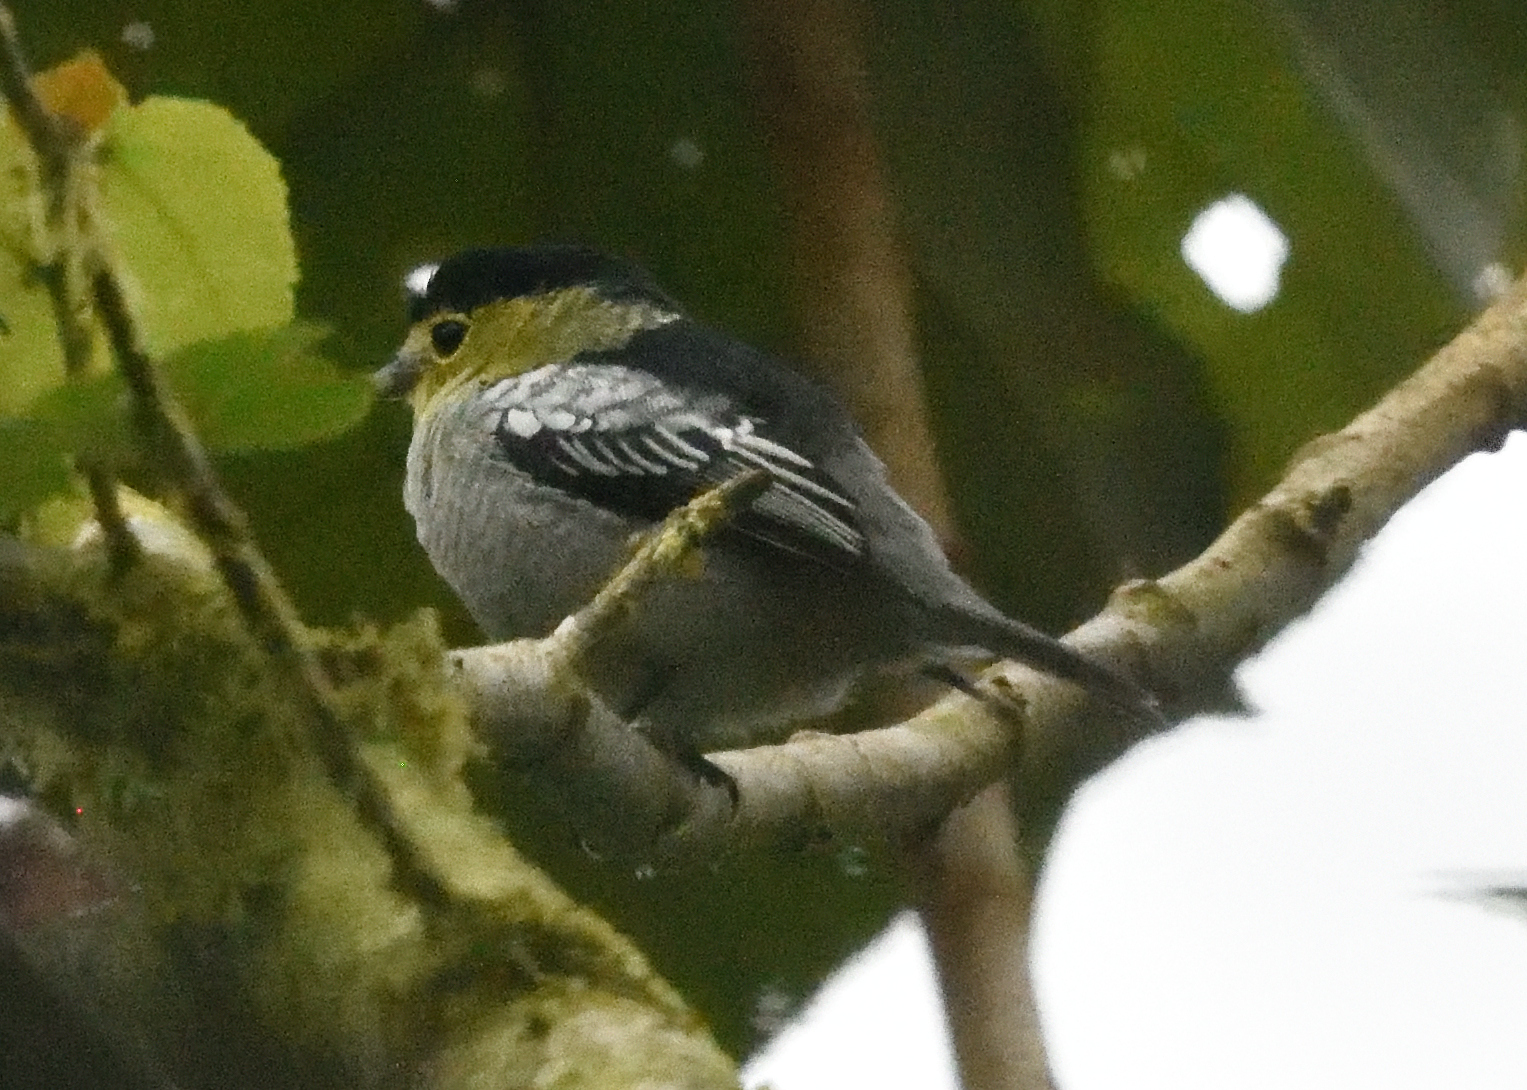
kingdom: Animalia
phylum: Chordata
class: Aves
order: Passeriformes
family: Cotingidae
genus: Pachyramphus
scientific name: Pachyramphus versicolor
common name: Barred becard
